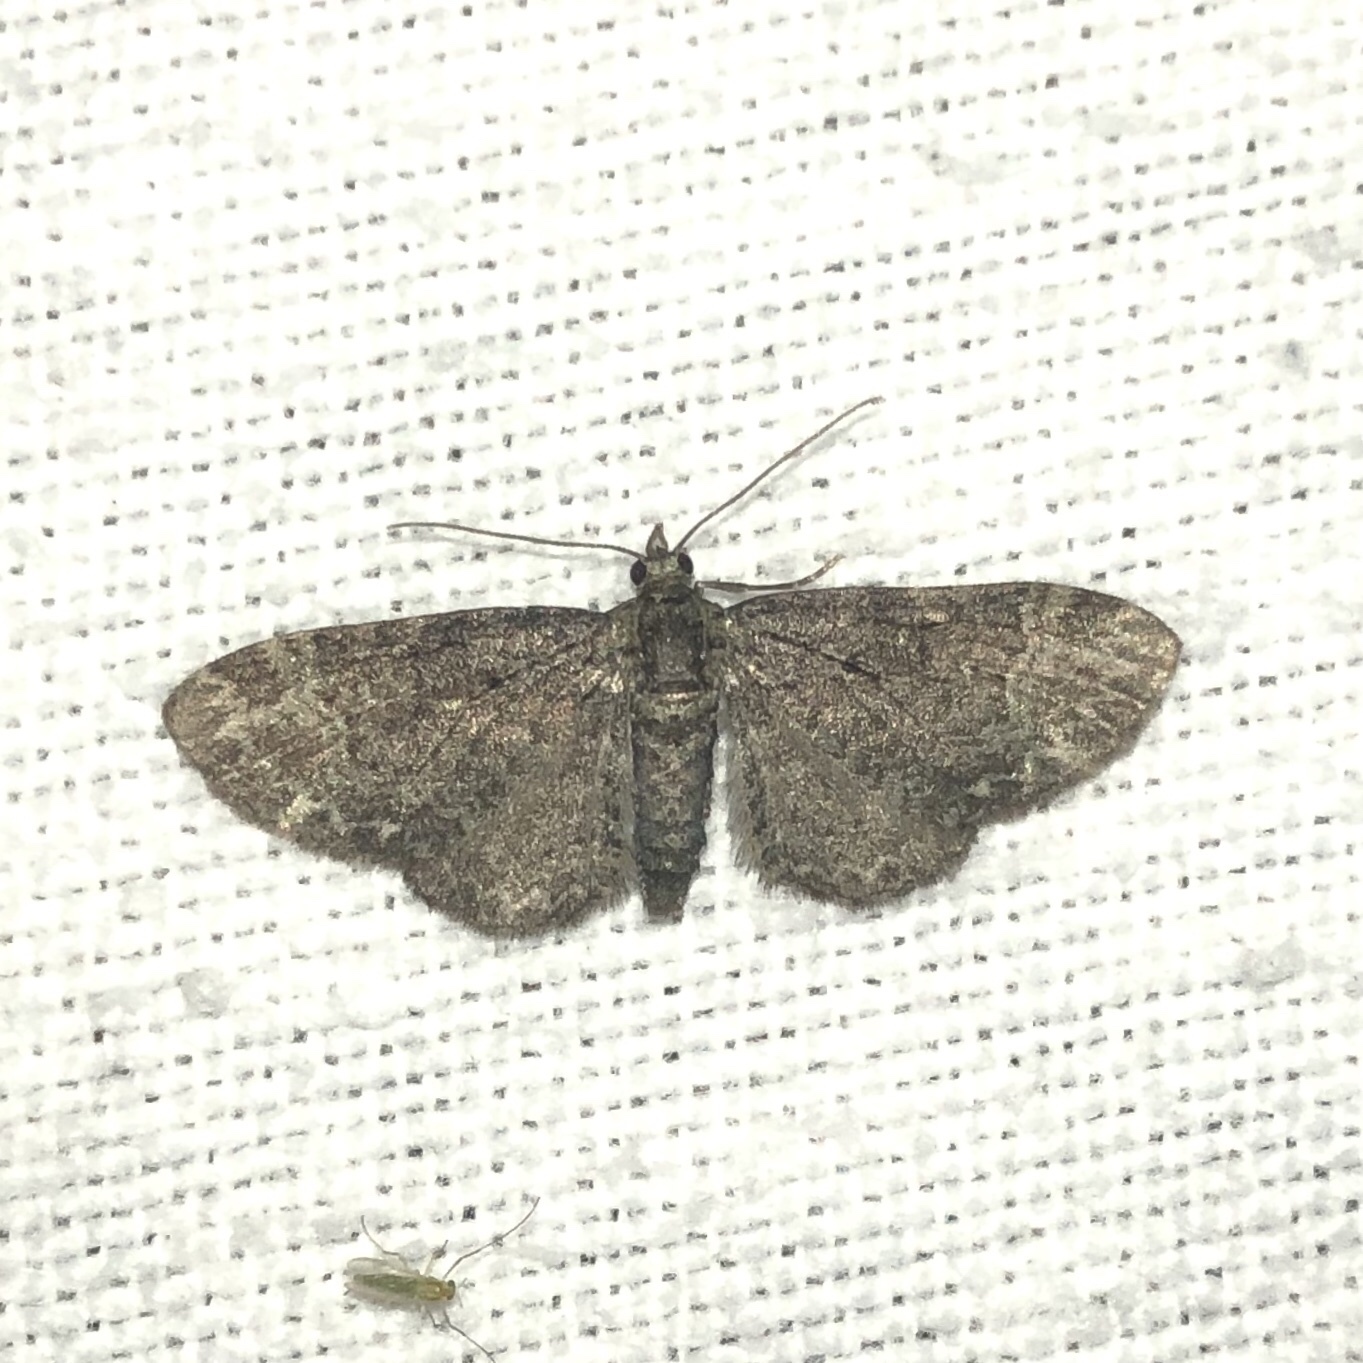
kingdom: Animalia
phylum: Arthropoda
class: Insecta
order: Lepidoptera
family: Geometridae
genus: Pasiphila
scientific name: Pasiphila rectangulata
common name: Green pug
